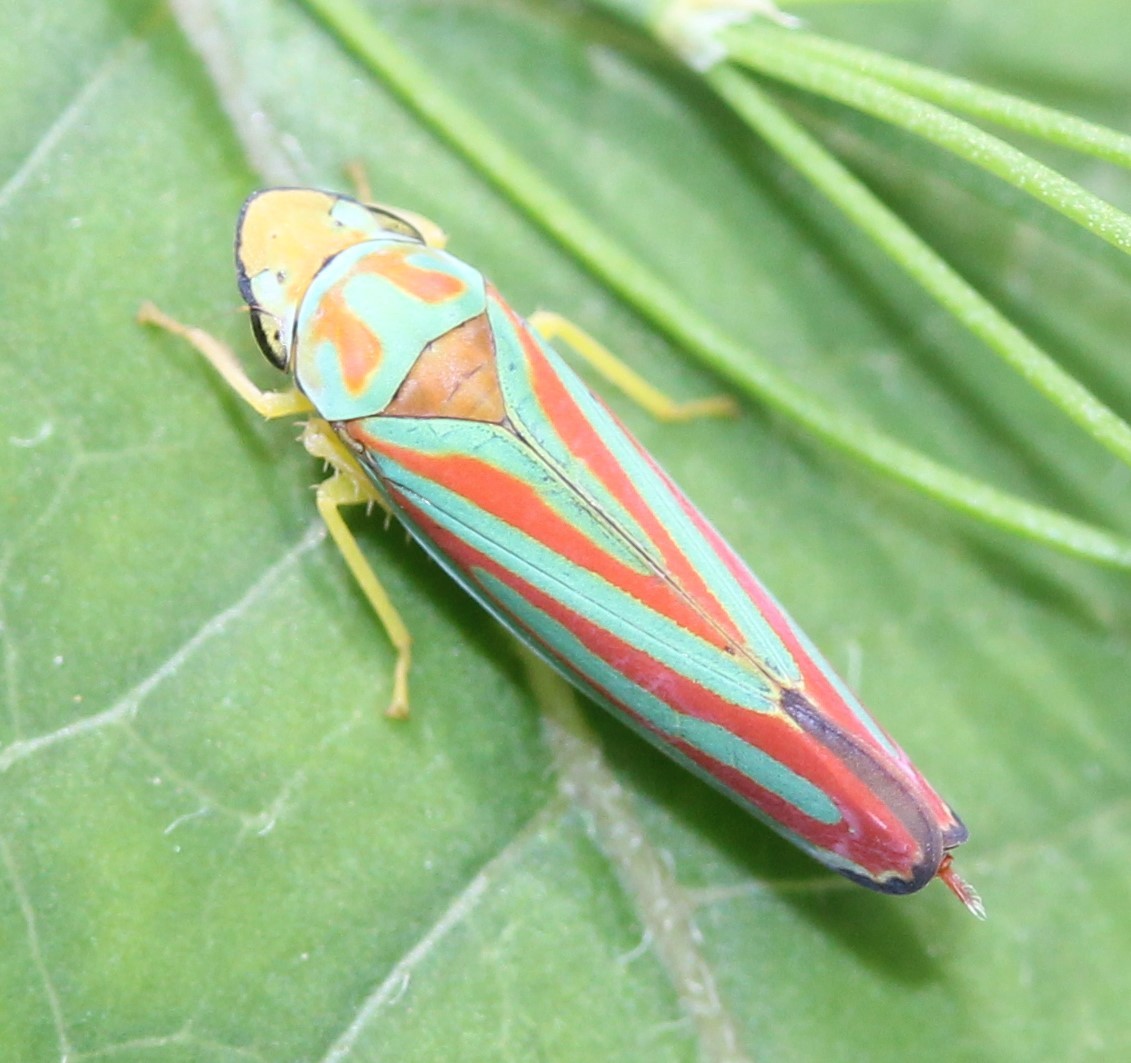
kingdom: Animalia
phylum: Arthropoda
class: Insecta
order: Hemiptera
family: Cicadellidae
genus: Graphocephala
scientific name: Graphocephala coccinea
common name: Candy-striped leafhopper
